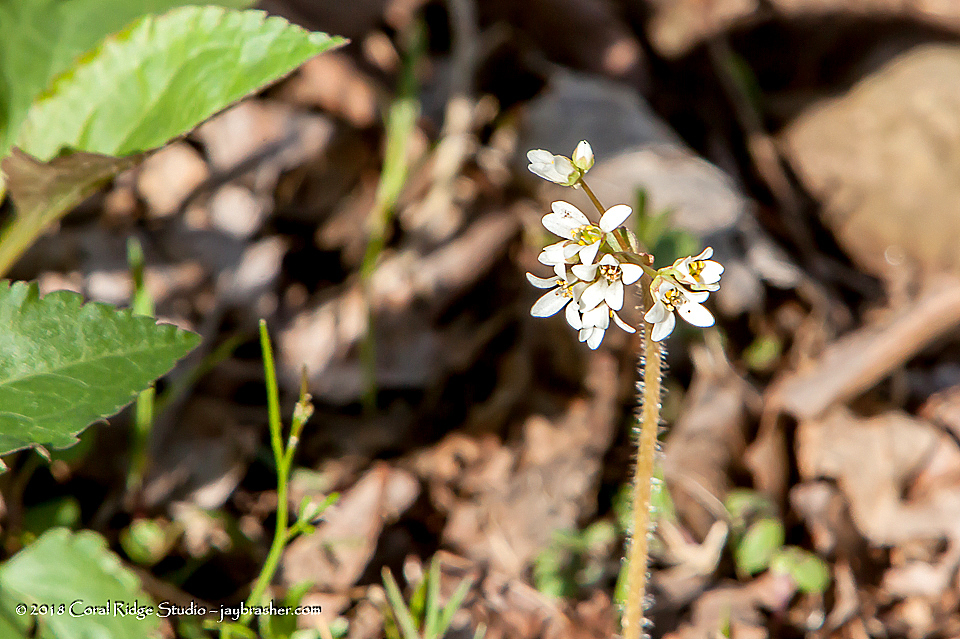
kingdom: Plantae
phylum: Tracheophyta
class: Magnoliopsida
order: Saxifragales
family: Saxifragaceae
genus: Micranthes
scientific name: Micranthes palmeri
